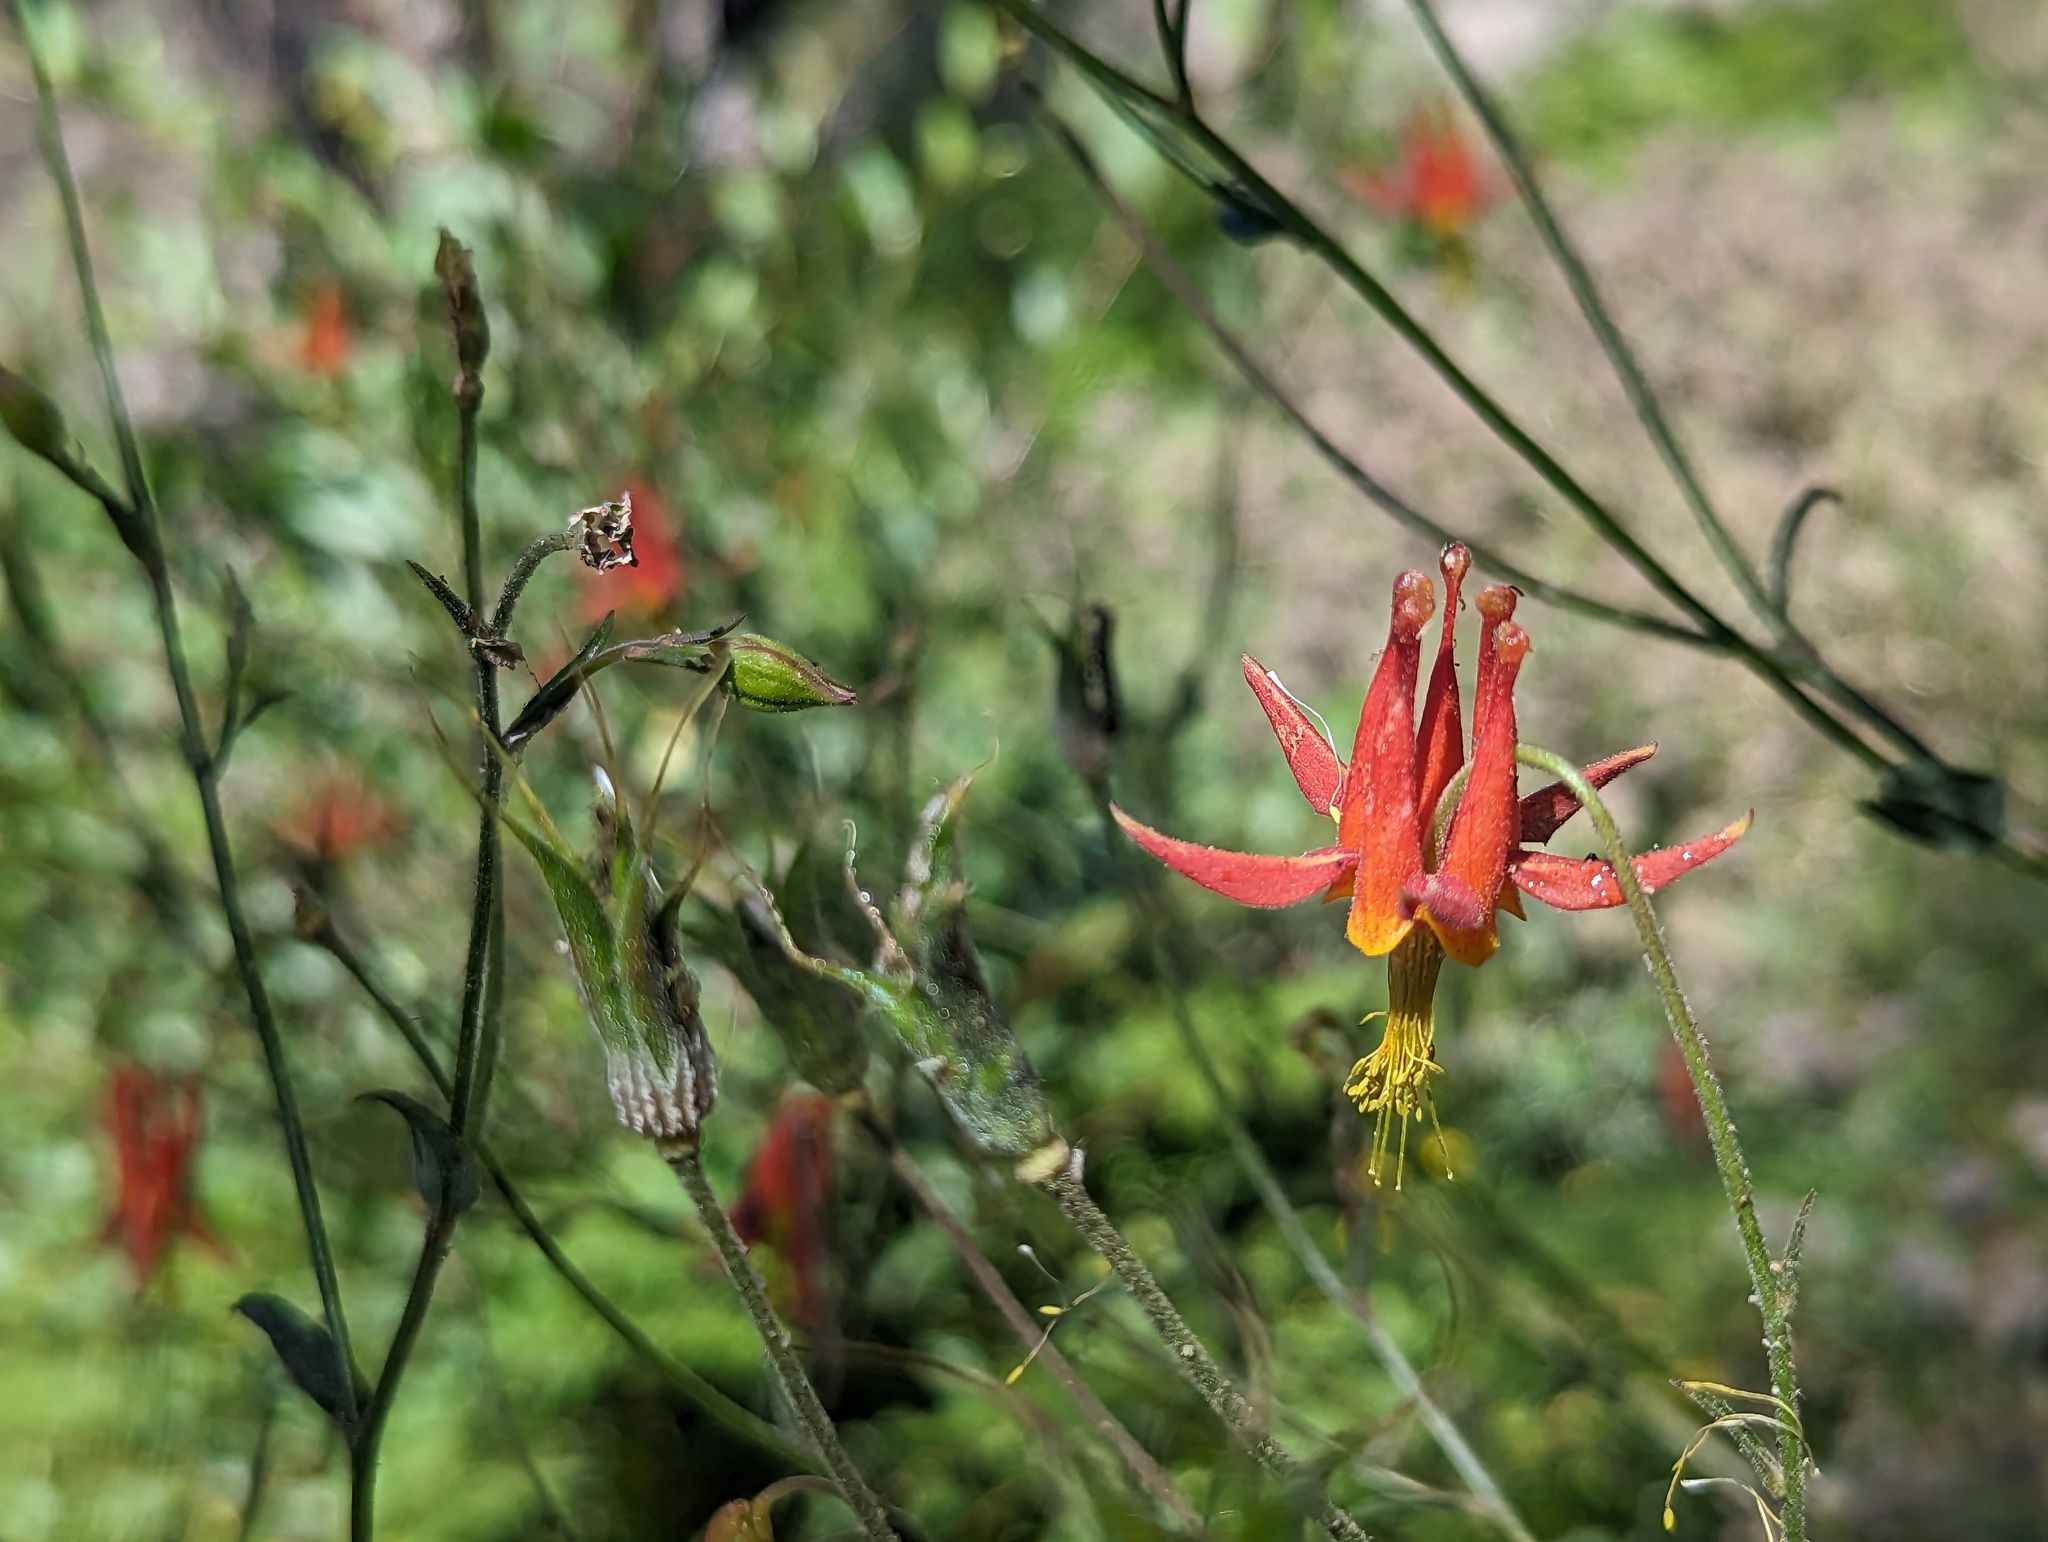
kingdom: Plantae
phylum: Tracheophyta
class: Magnoliopsida
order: Ranunculales
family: Ranunculaceae
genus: Aquilegia
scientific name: Aquilegia formosa
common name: Sitka columbine
